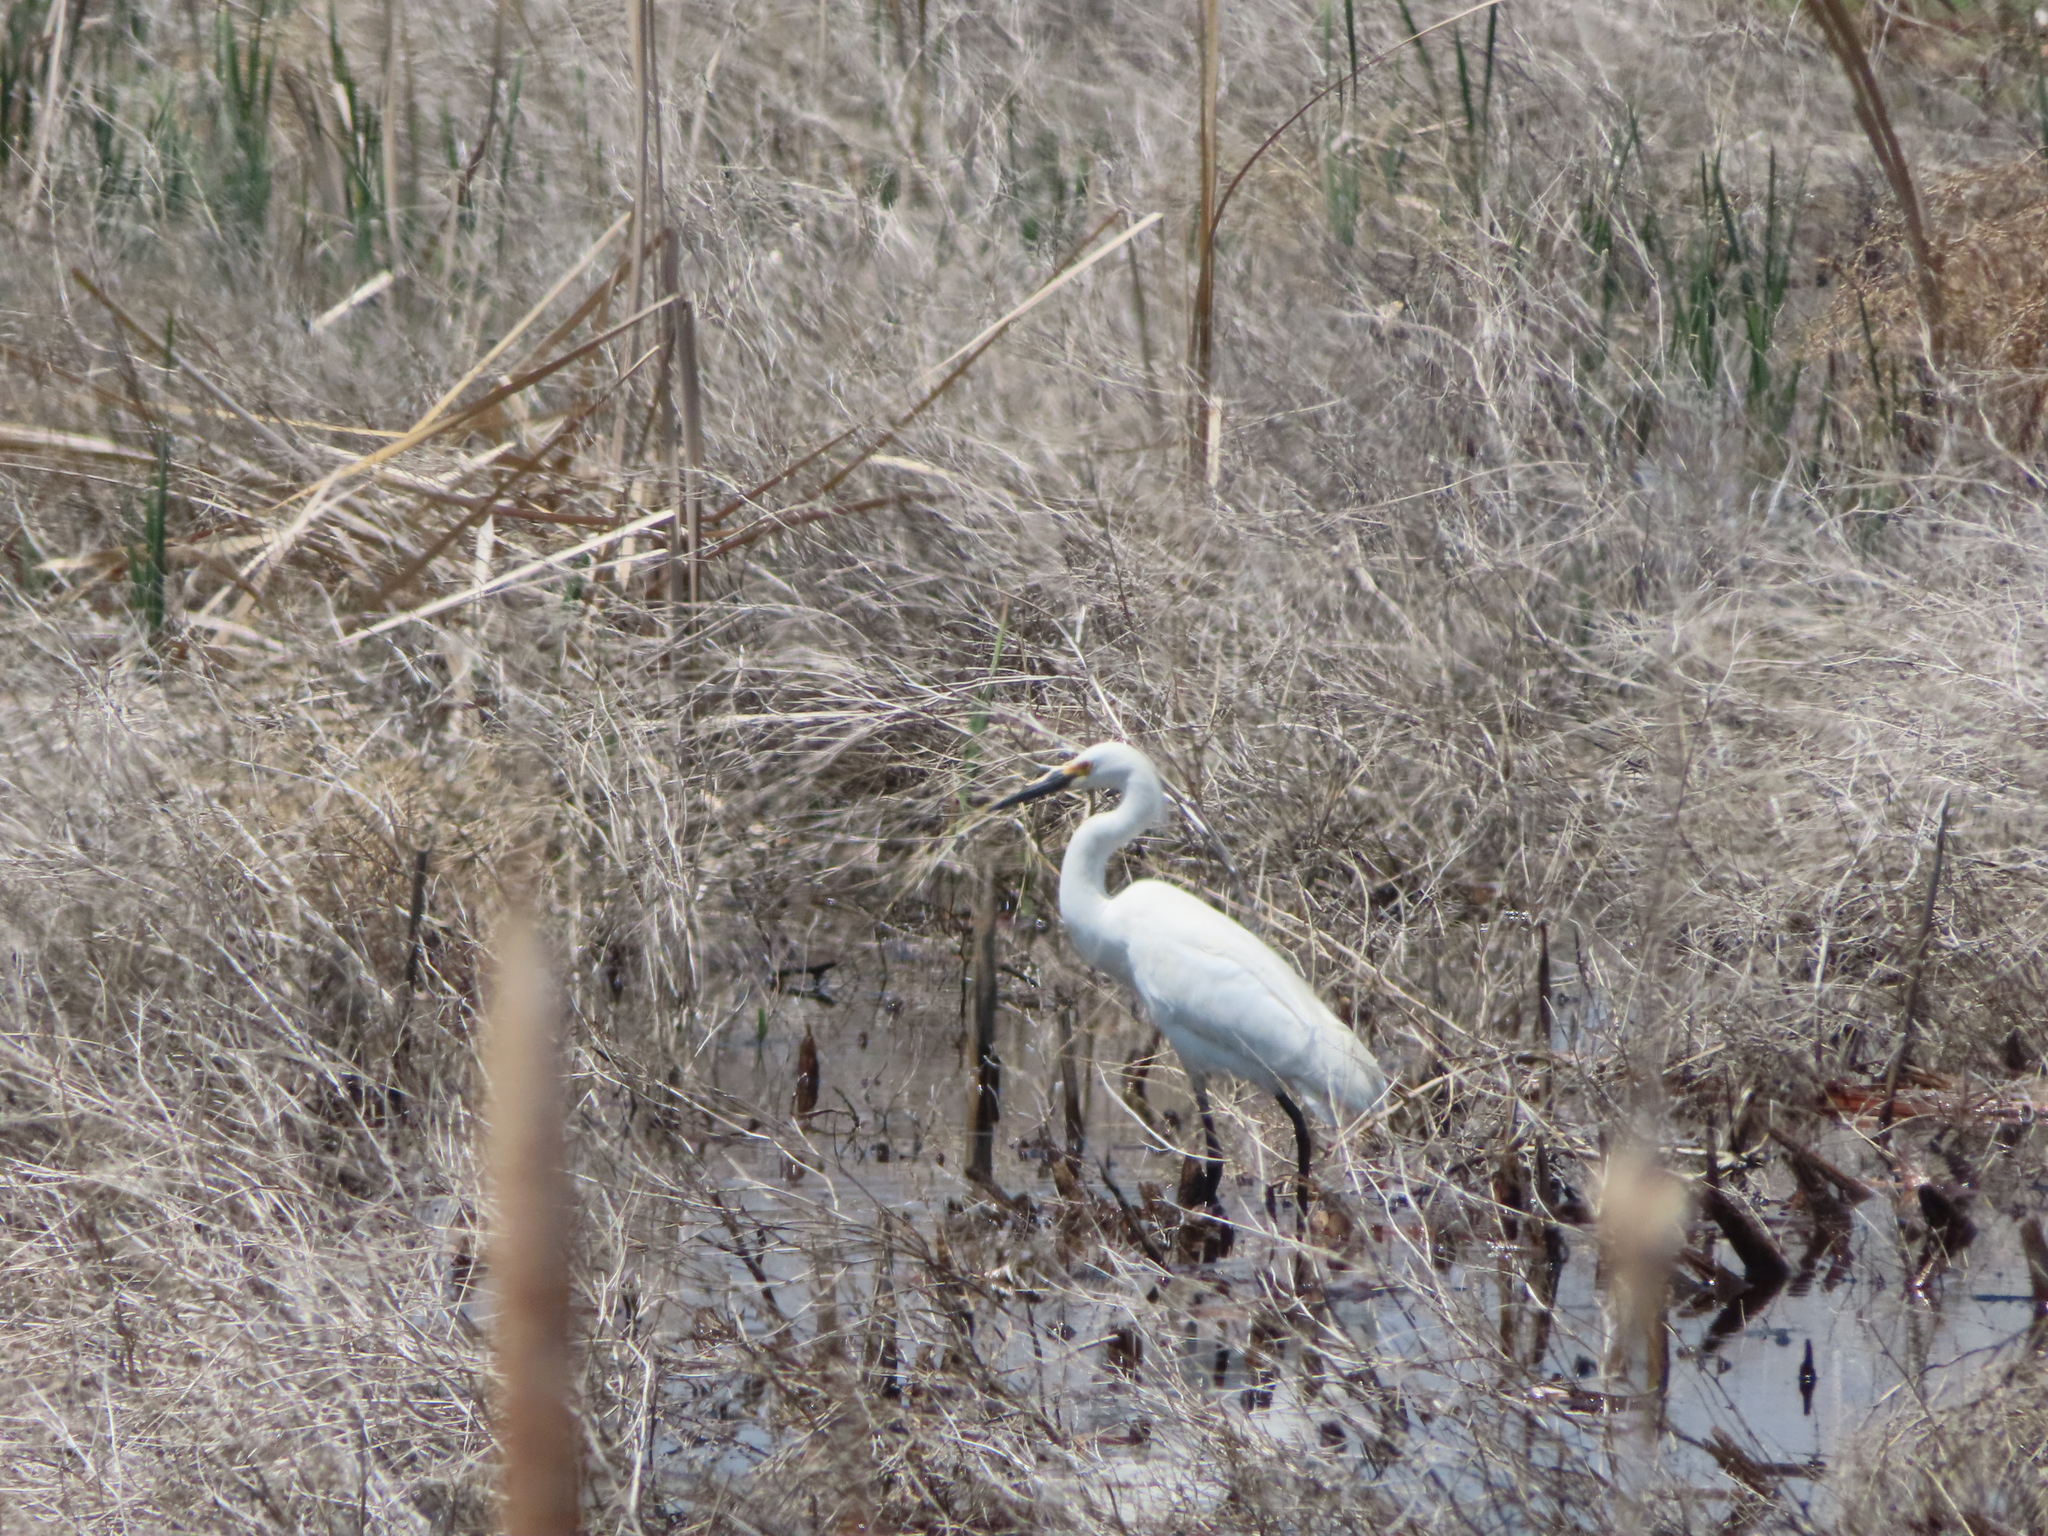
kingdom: Animalia
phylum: Chordata
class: Aves
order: Pelecaniformes
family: Ardeidae
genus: Egretta
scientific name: Egretta thula
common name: Snowy egret
